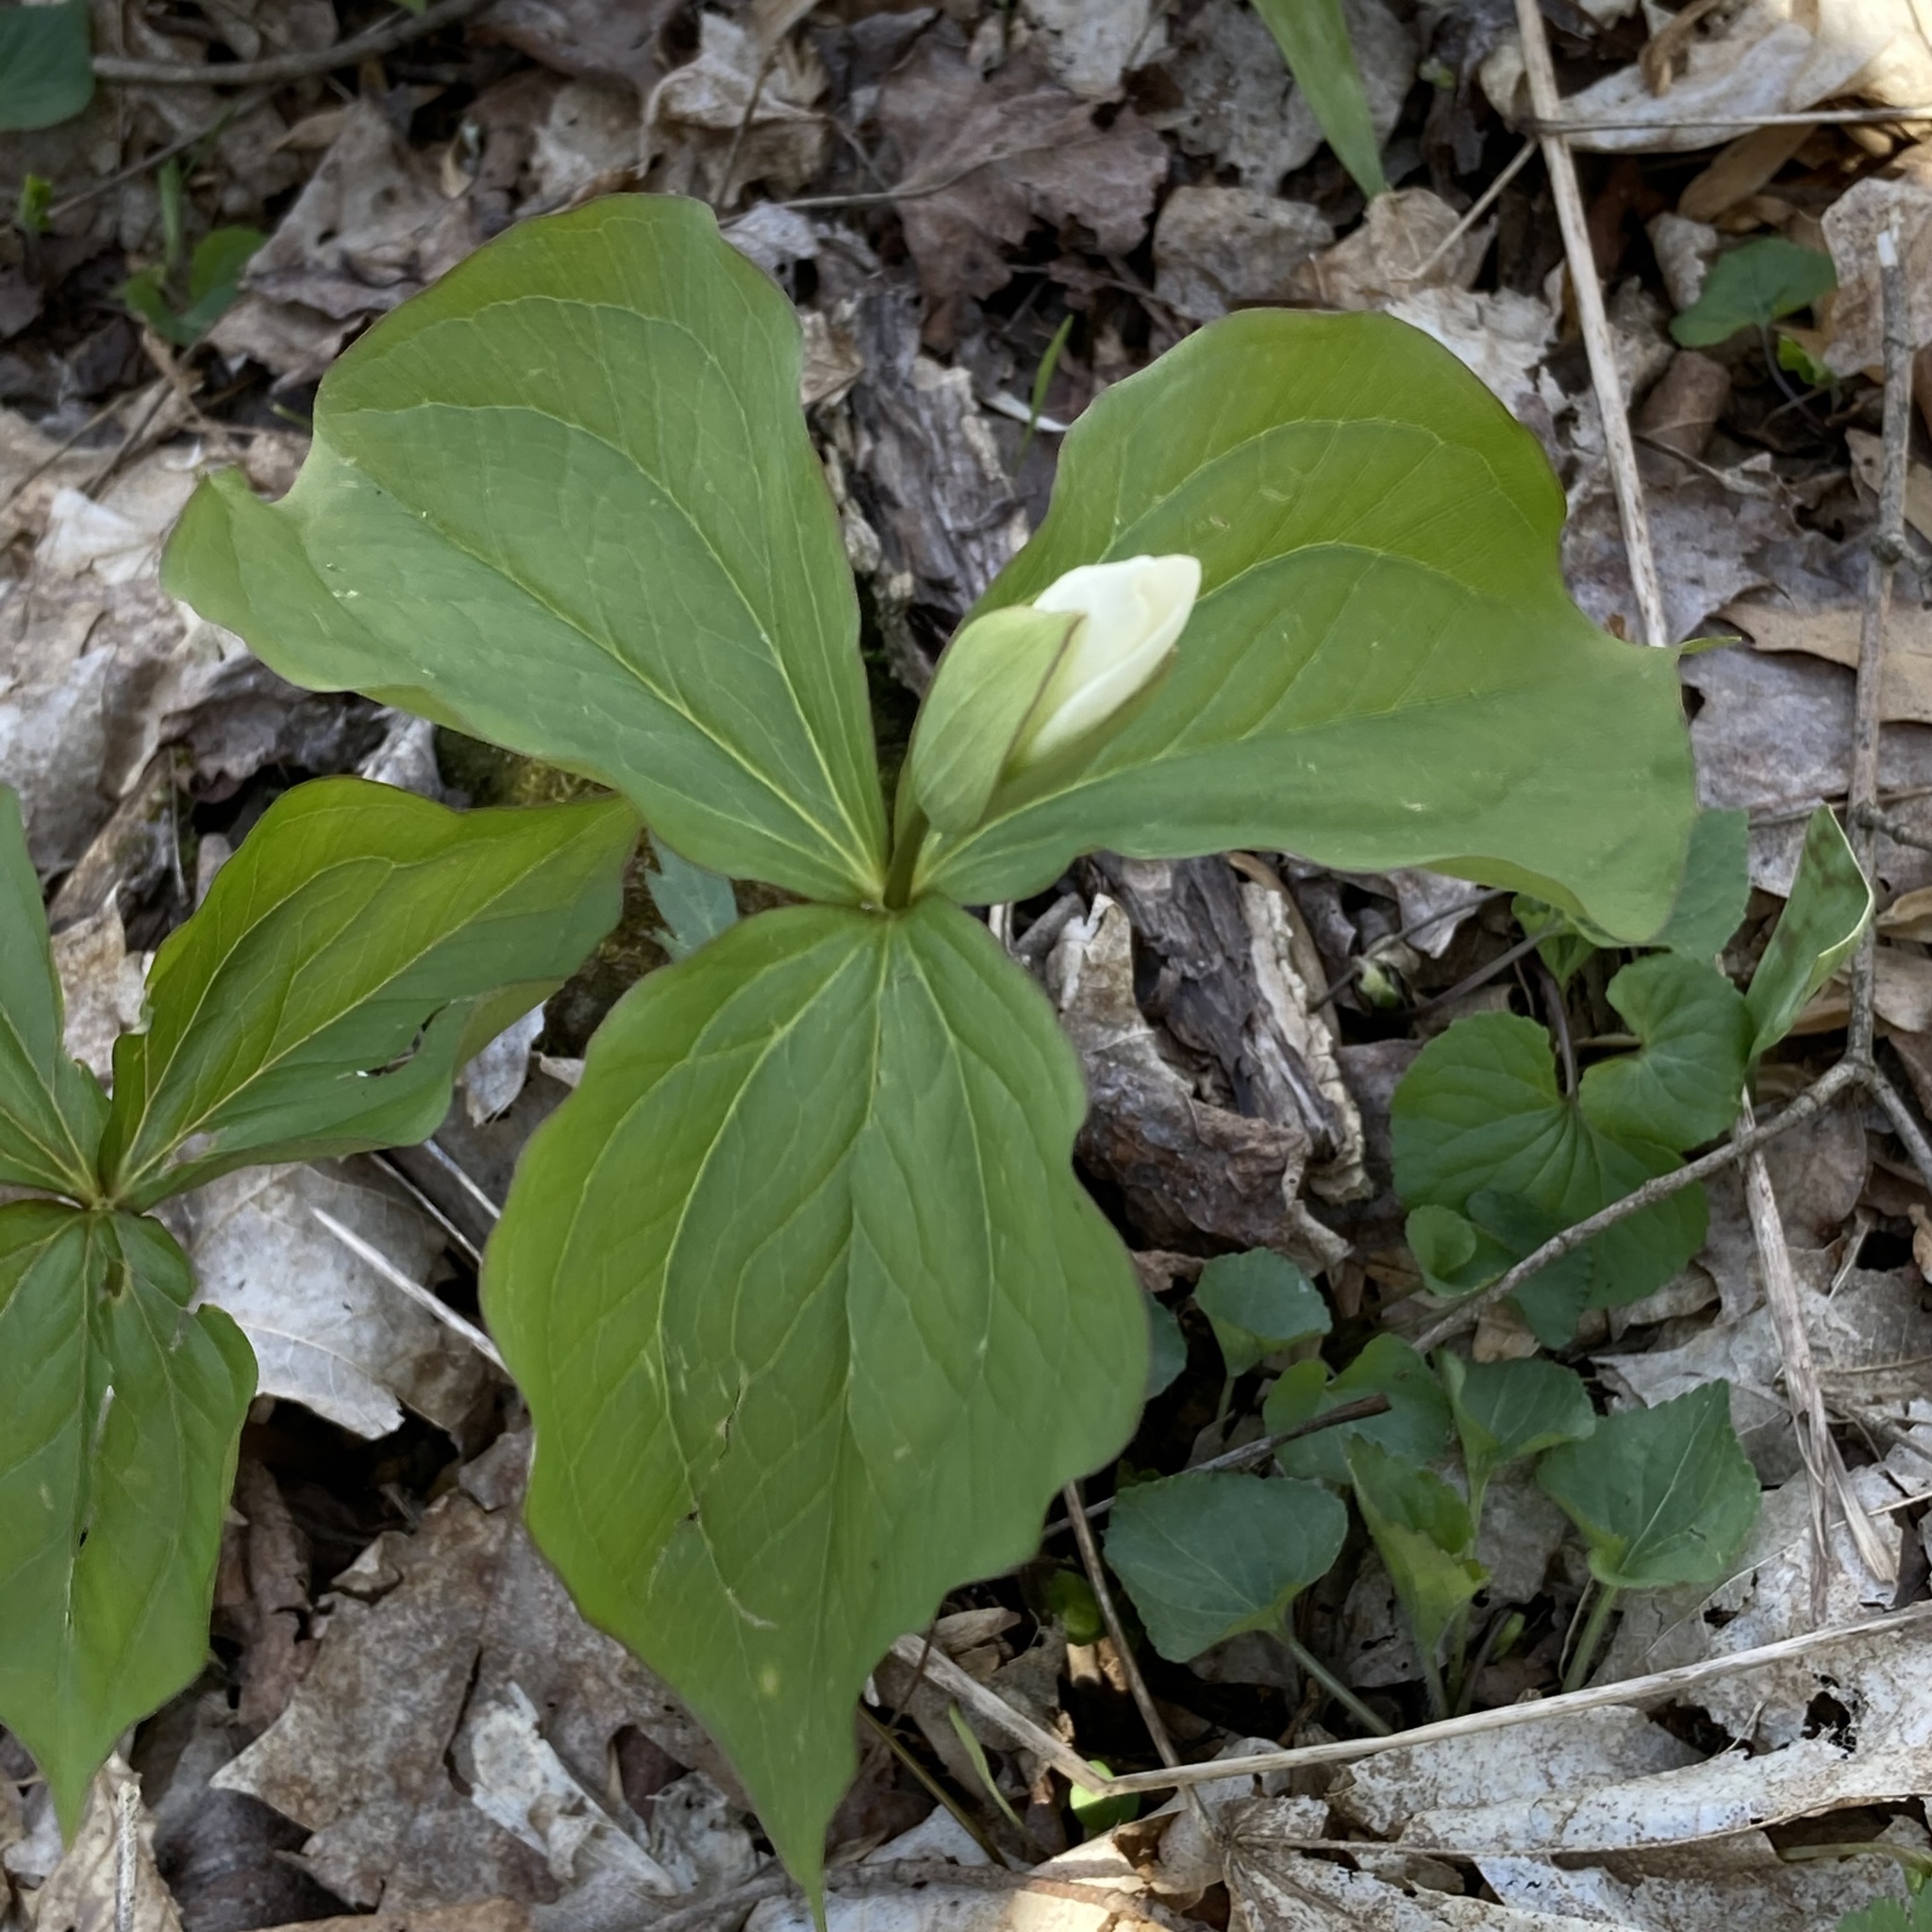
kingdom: Plantae
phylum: Tracheophyta
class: Liliopsida
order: Liliales
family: Melanthiaceae
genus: Trillium
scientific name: Trillium grandiflorum
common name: Great white trillium
